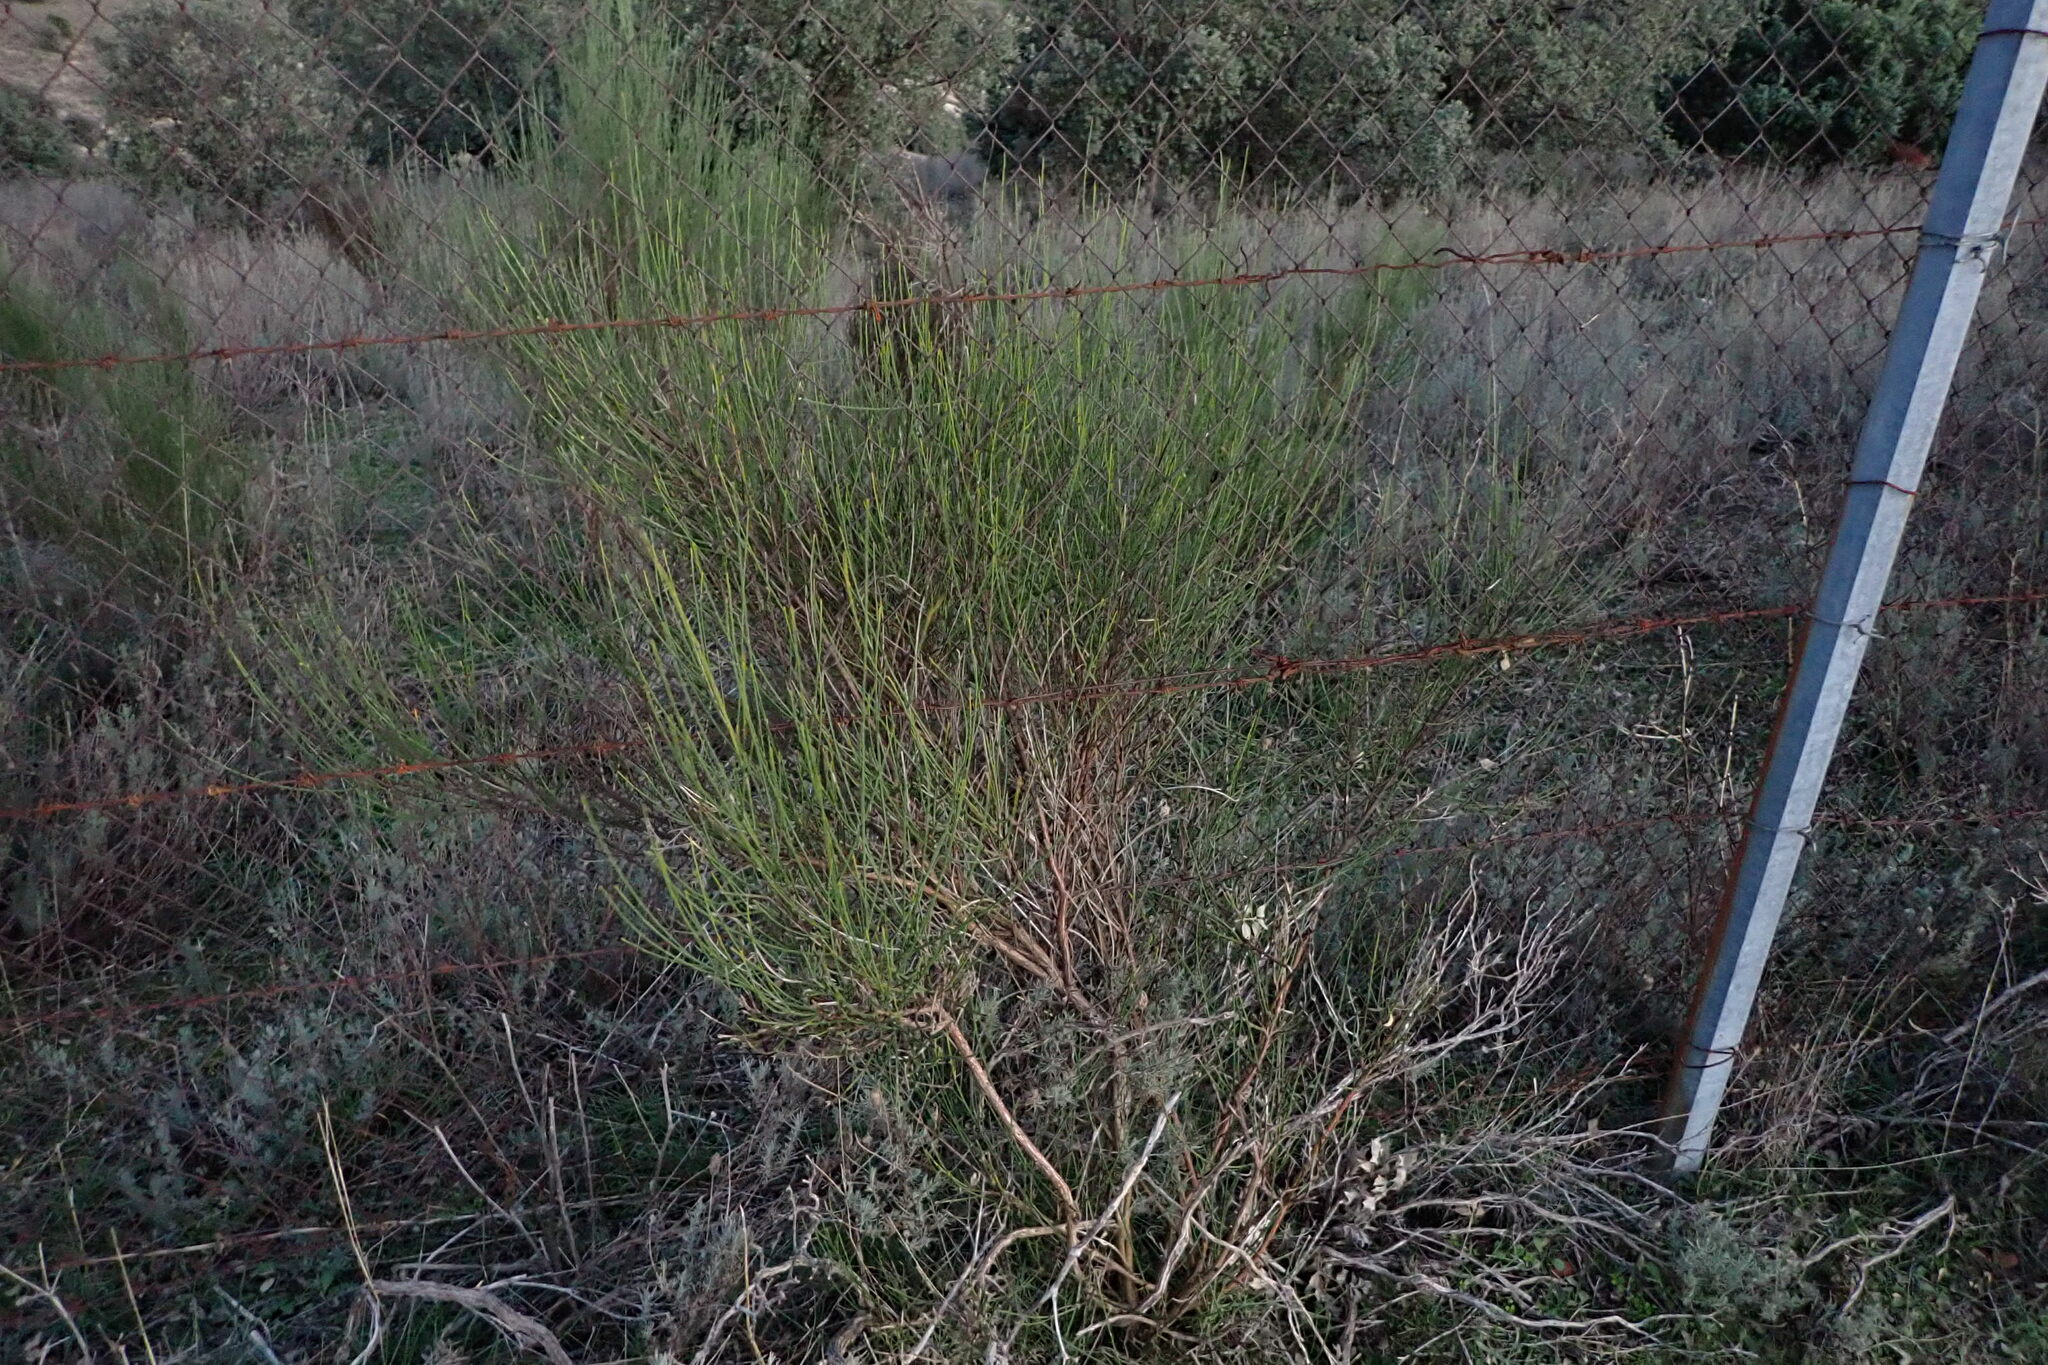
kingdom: Plantae
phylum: Tracheophyta
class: Magnoliopsida
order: Fabales
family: Fabaceae
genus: Cytisus
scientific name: Cytisus scoparius
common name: Scotch broom
